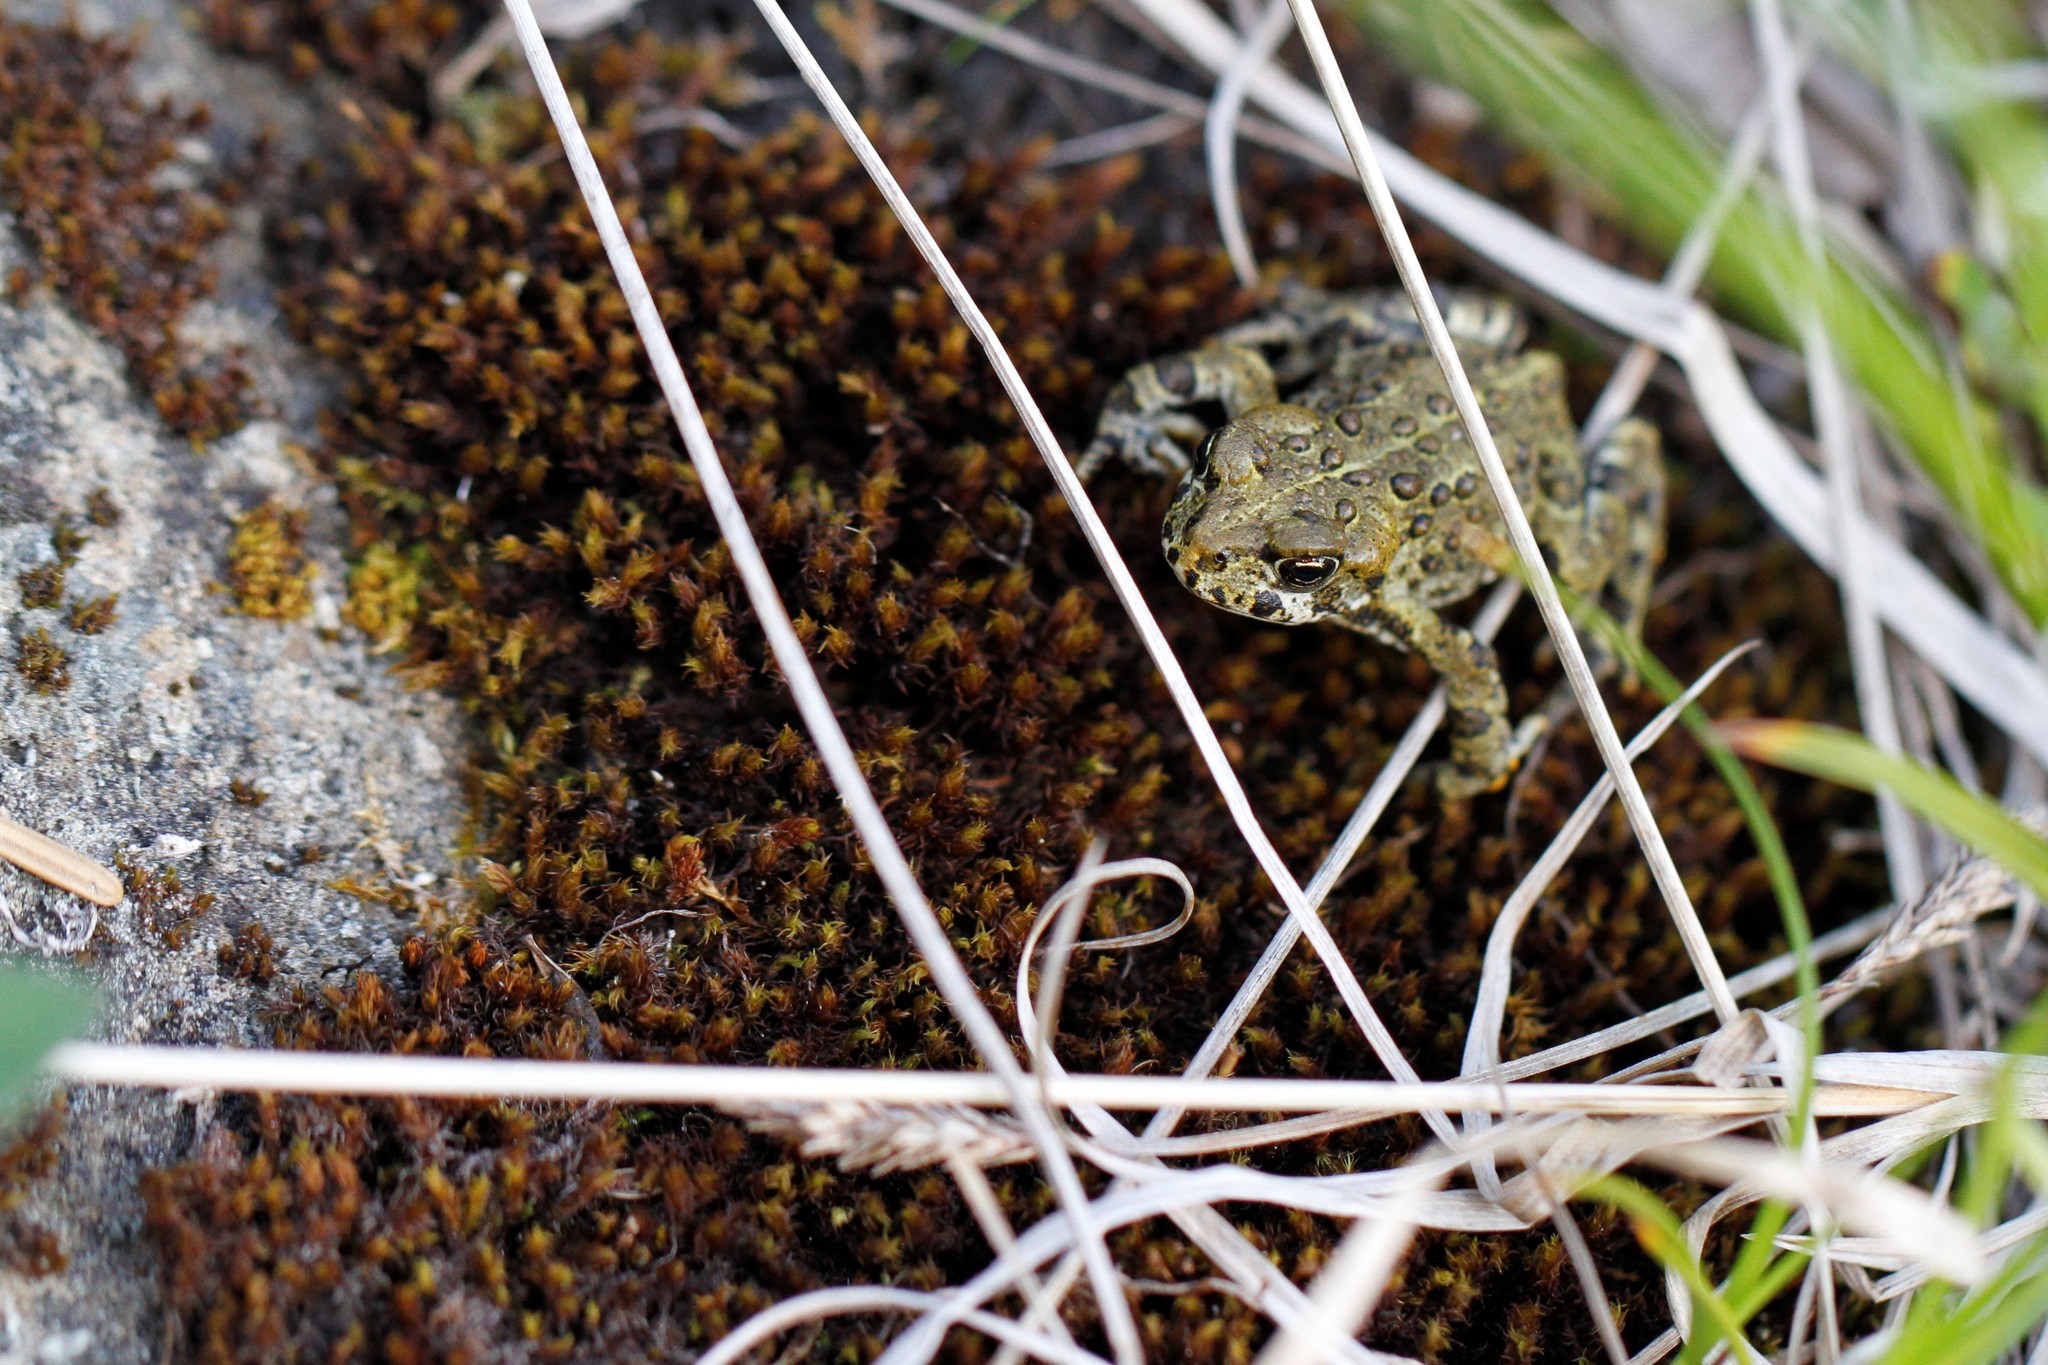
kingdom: Animalia
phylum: Chordata
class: Amphibia
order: Anura
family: Bufonidae
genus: Anaxyrus
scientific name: Anaxyrus boreas
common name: Western toad
